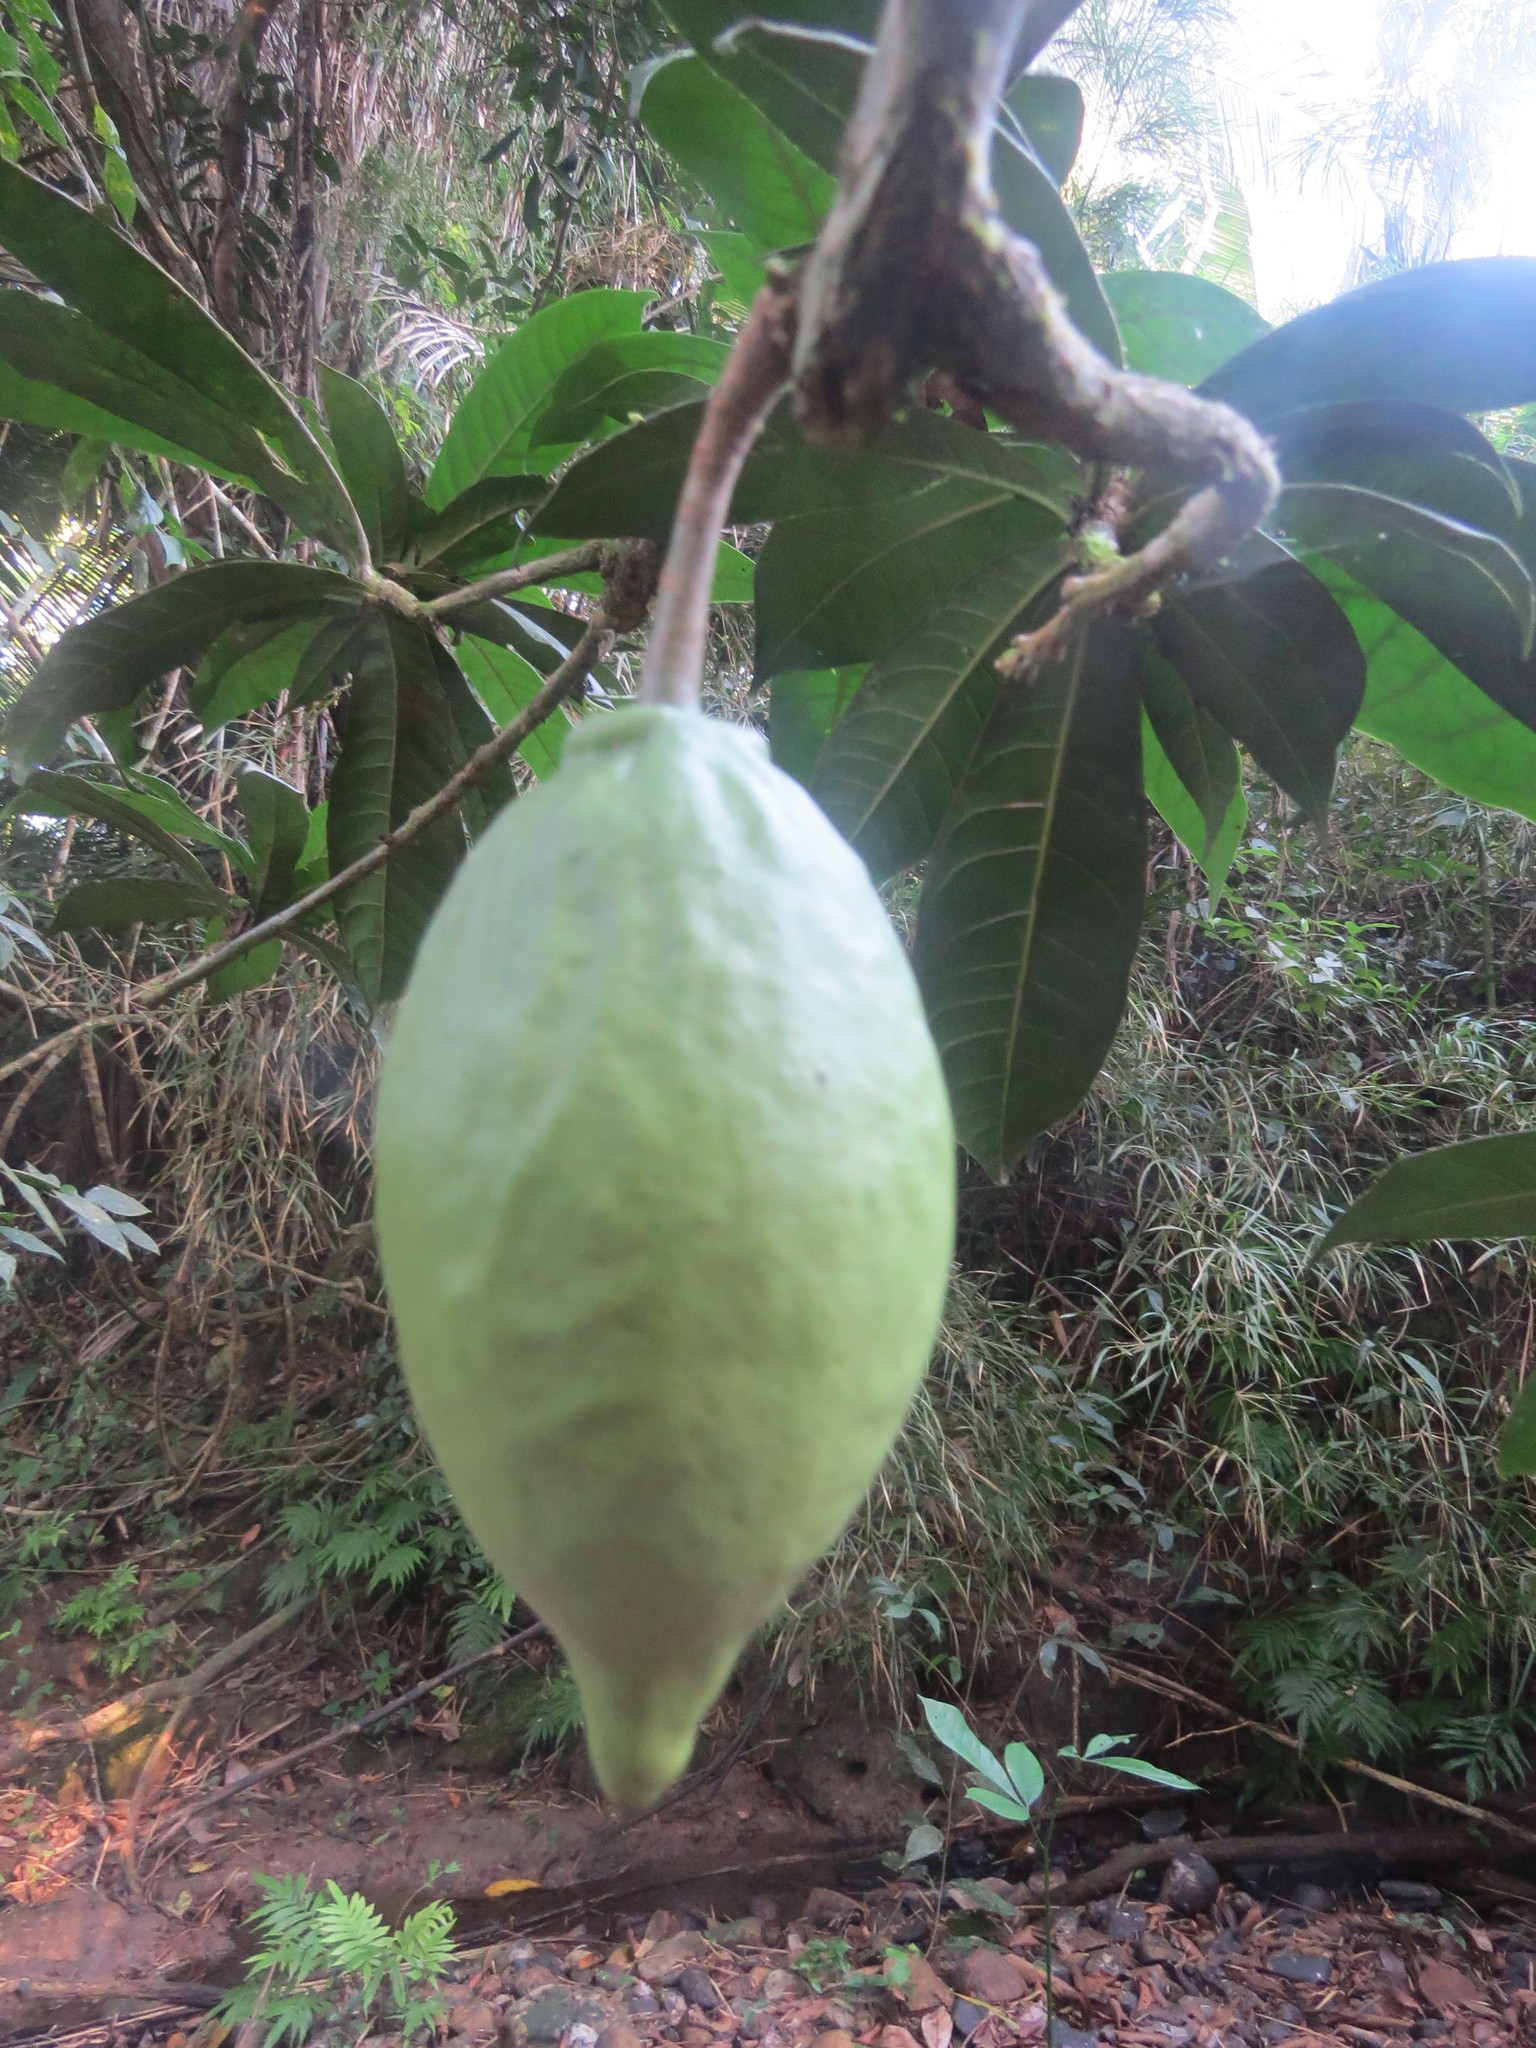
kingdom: Plantae
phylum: Tracheophyta
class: Magnoliopsida
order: Lamiales
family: Bignoniaceae
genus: Amphitecna
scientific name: Amphitecna apiculata
